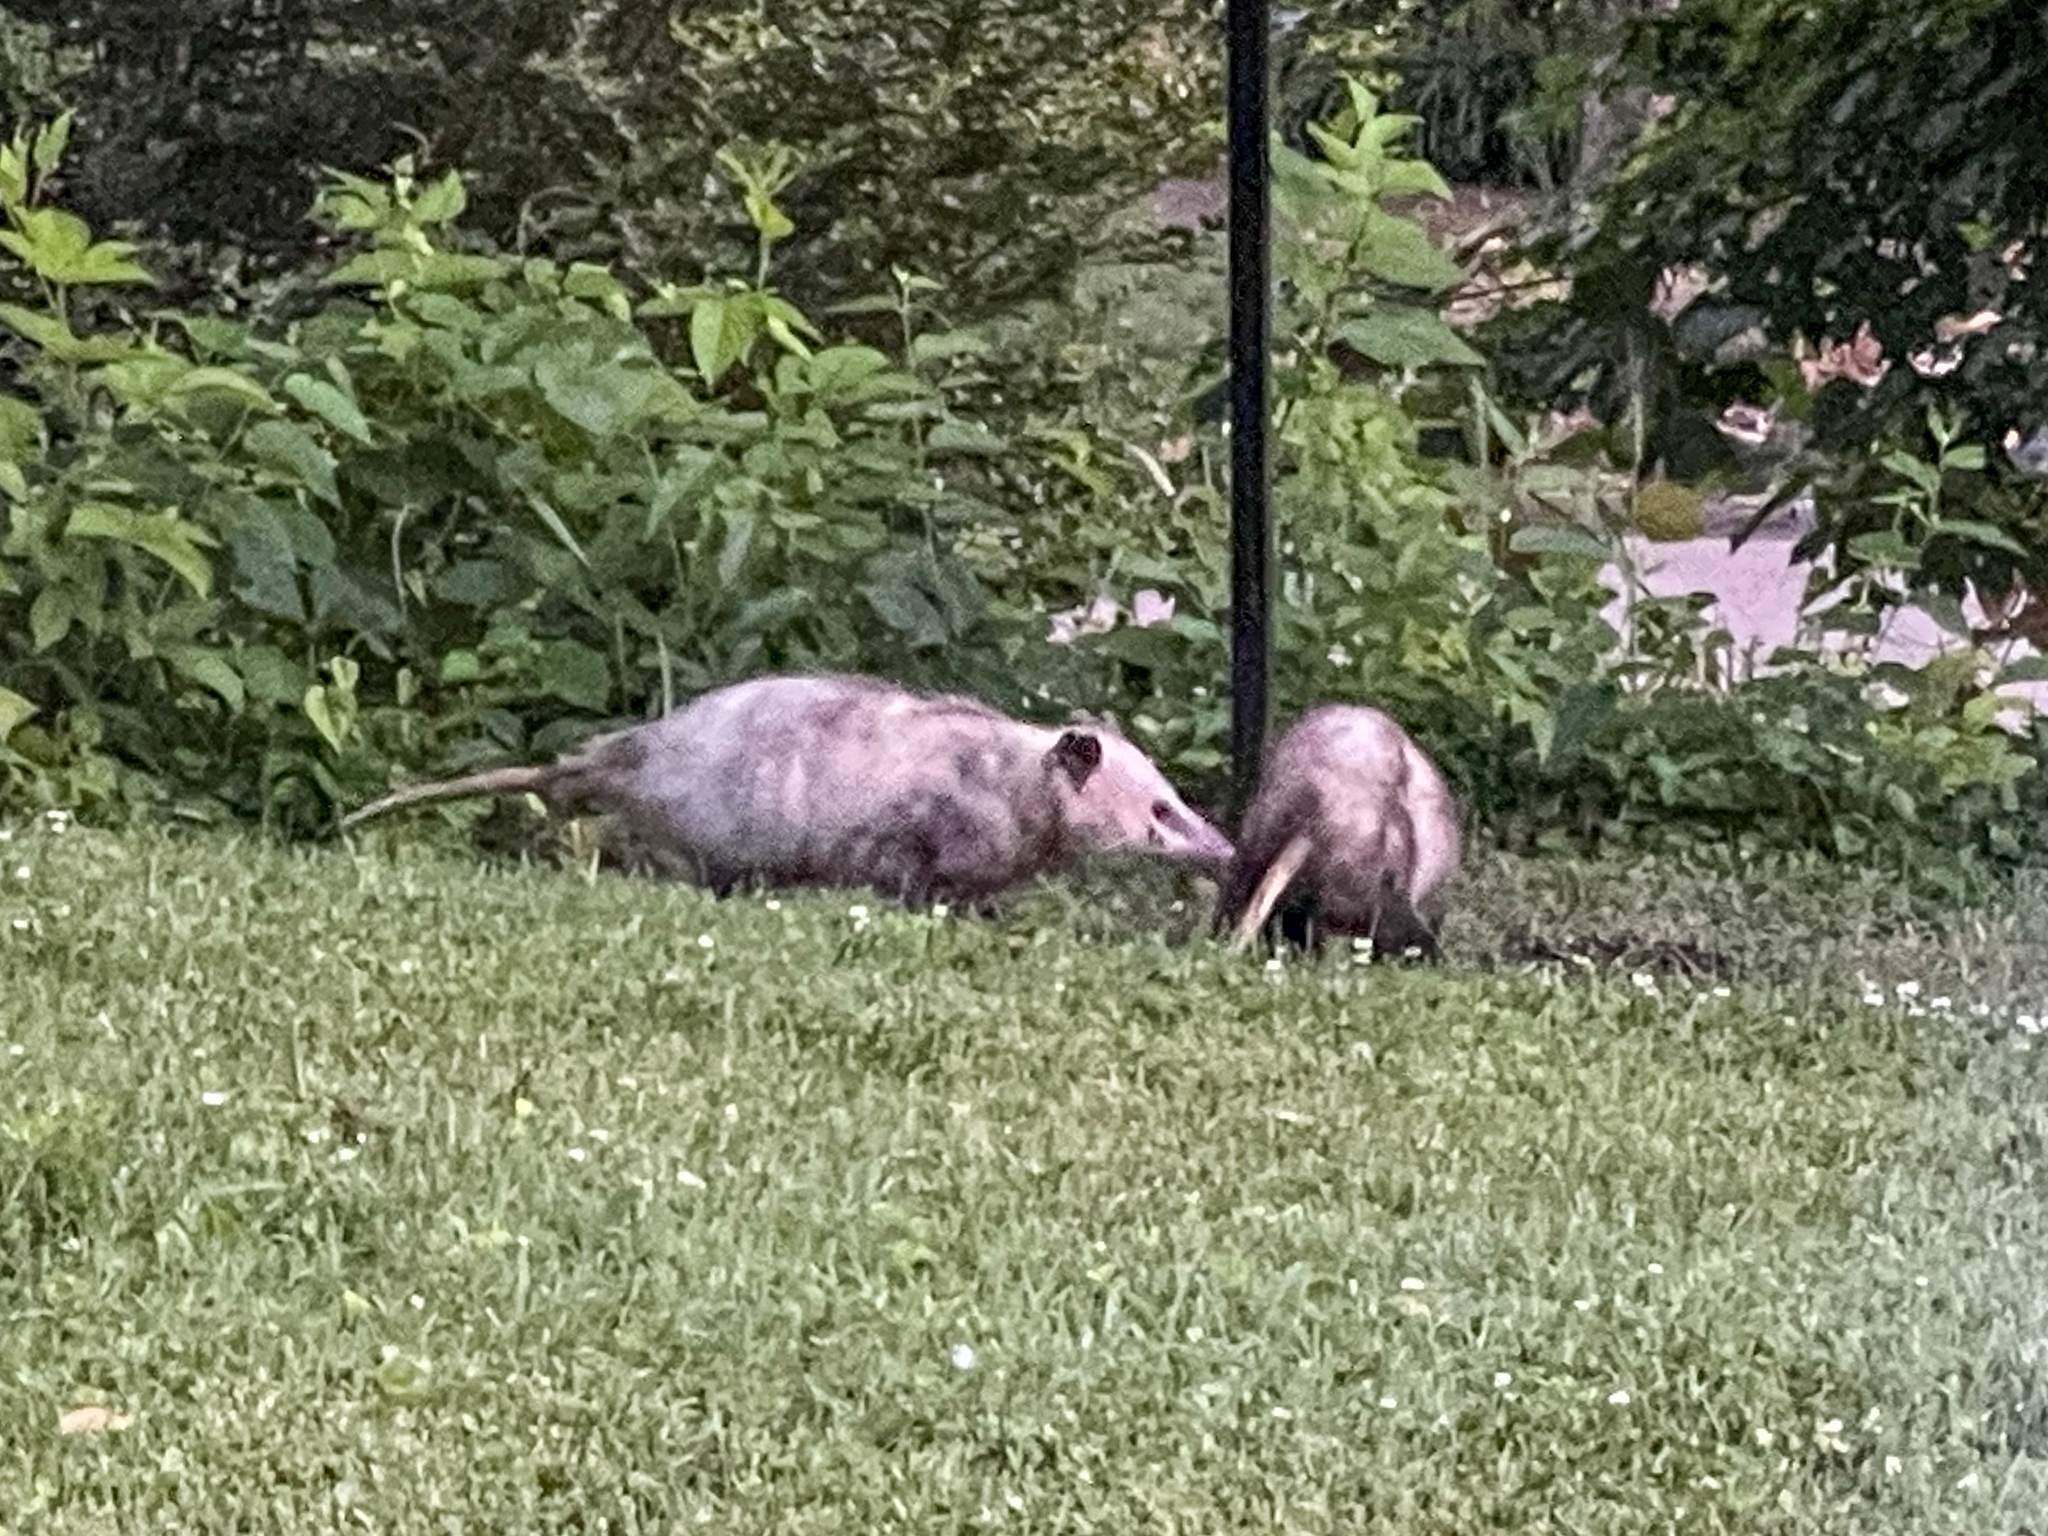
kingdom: Animalia
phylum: Chordata
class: Mammalia
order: Didelphimorphia
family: Didelphidae
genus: Didelphis
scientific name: Didelphis virginiana
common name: Virginia opossum
